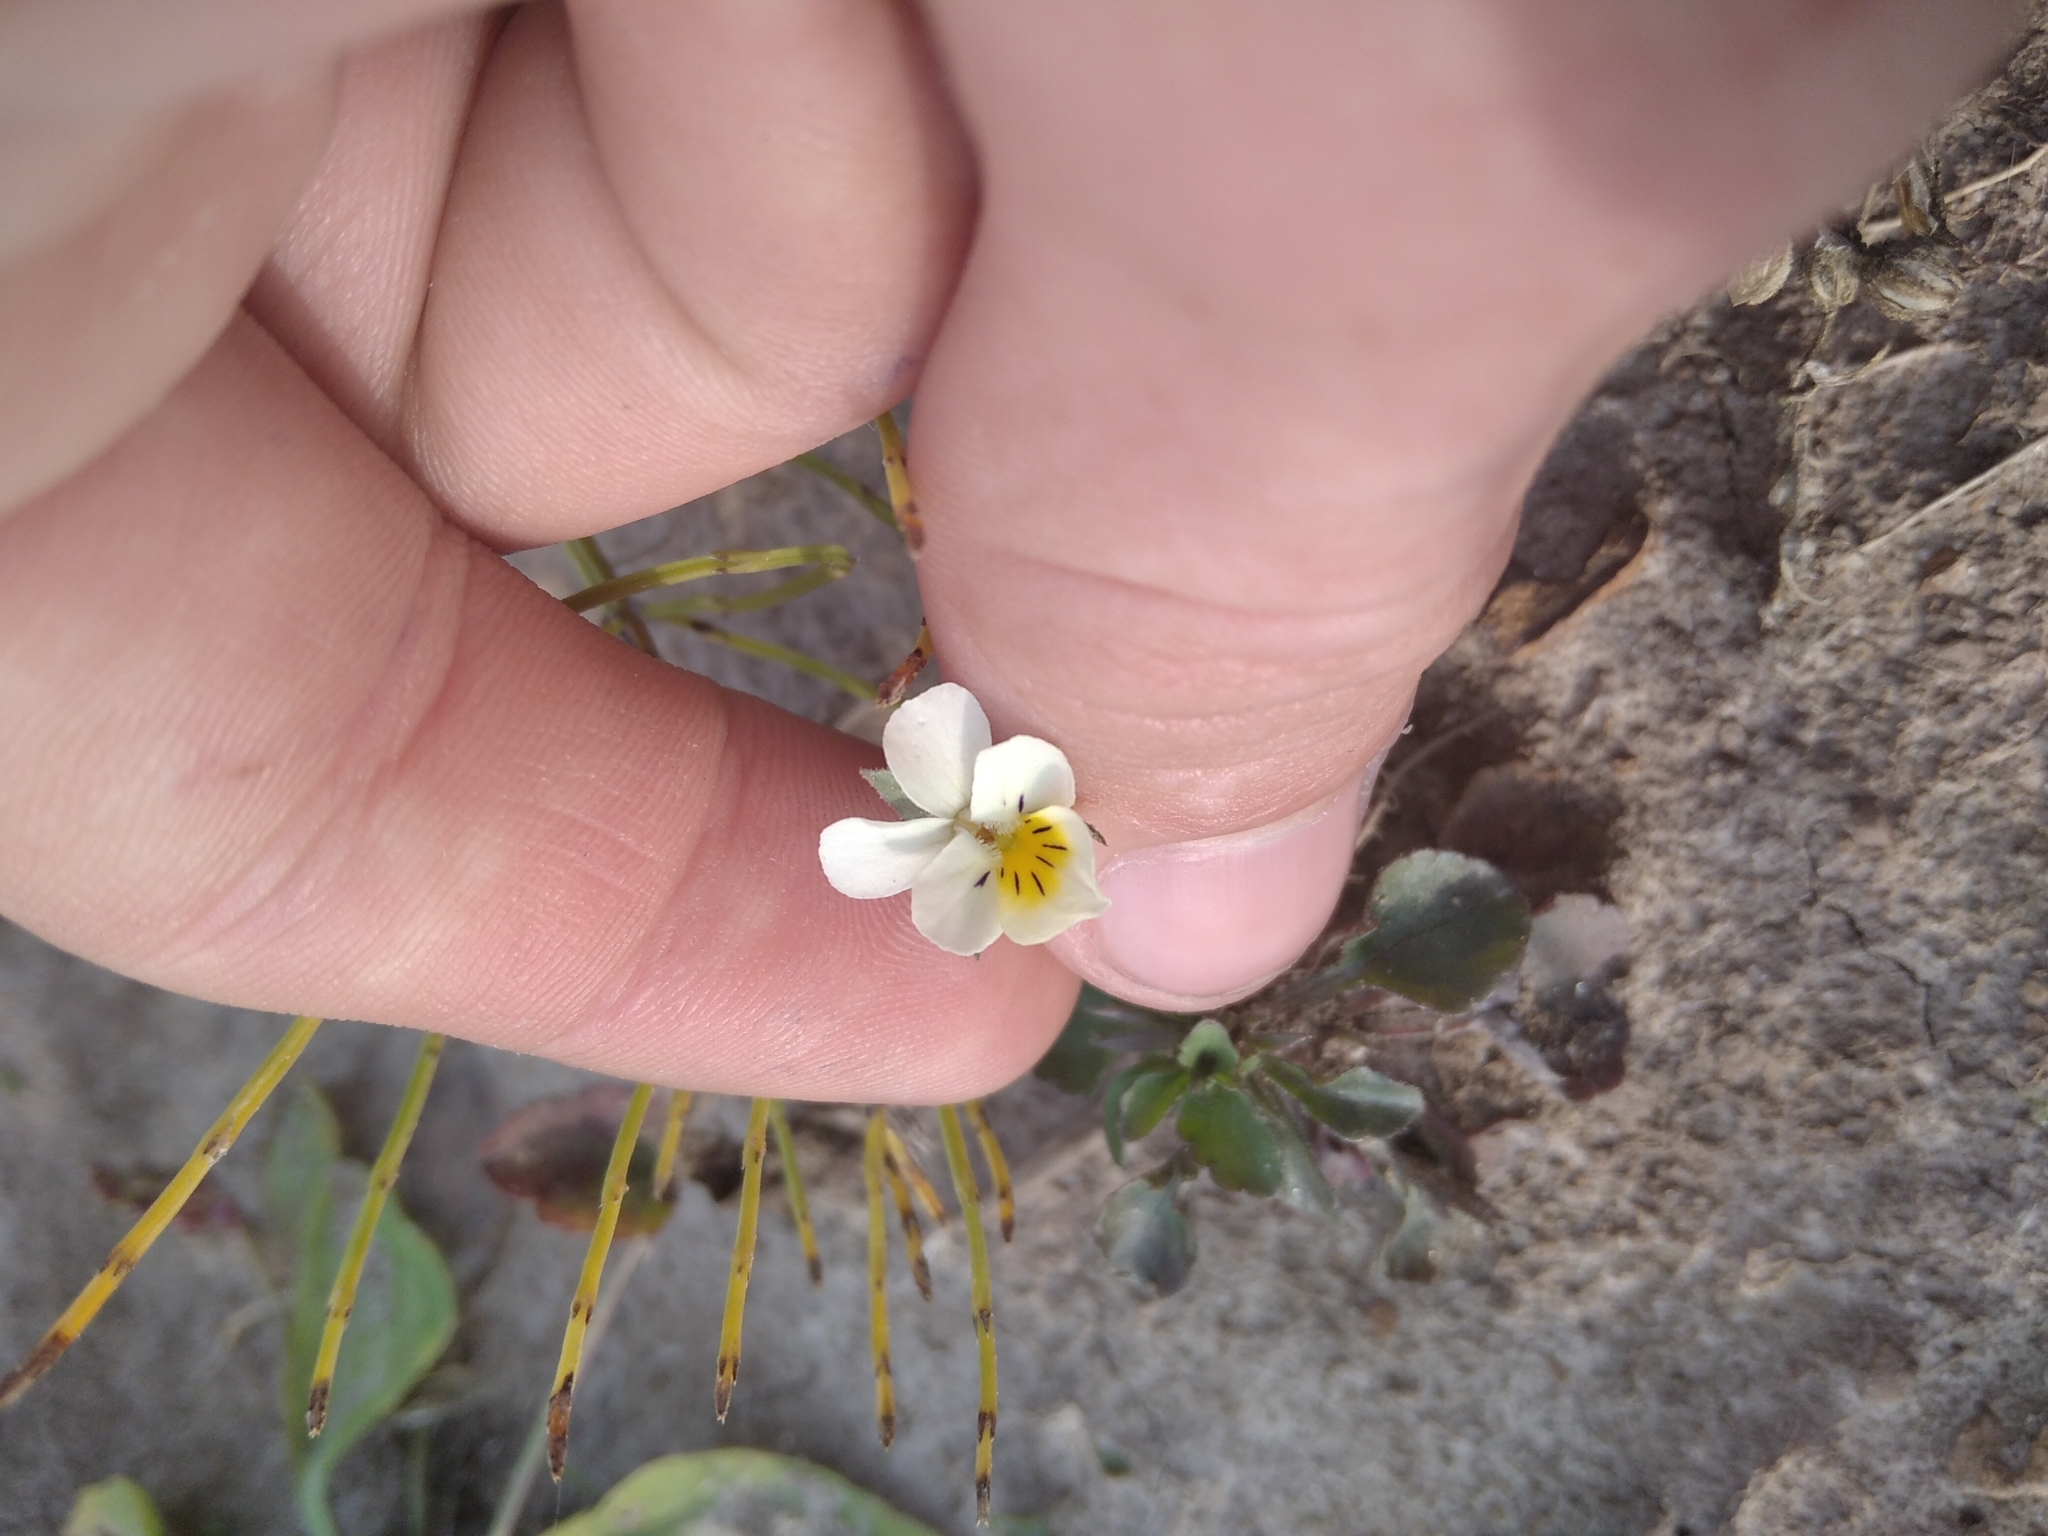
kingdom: Plantae
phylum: Tracheophyta
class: Magnoliopsida
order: Malpighiales
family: Violaceae
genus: Viola
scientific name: Viola arvensis
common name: Field pansy
